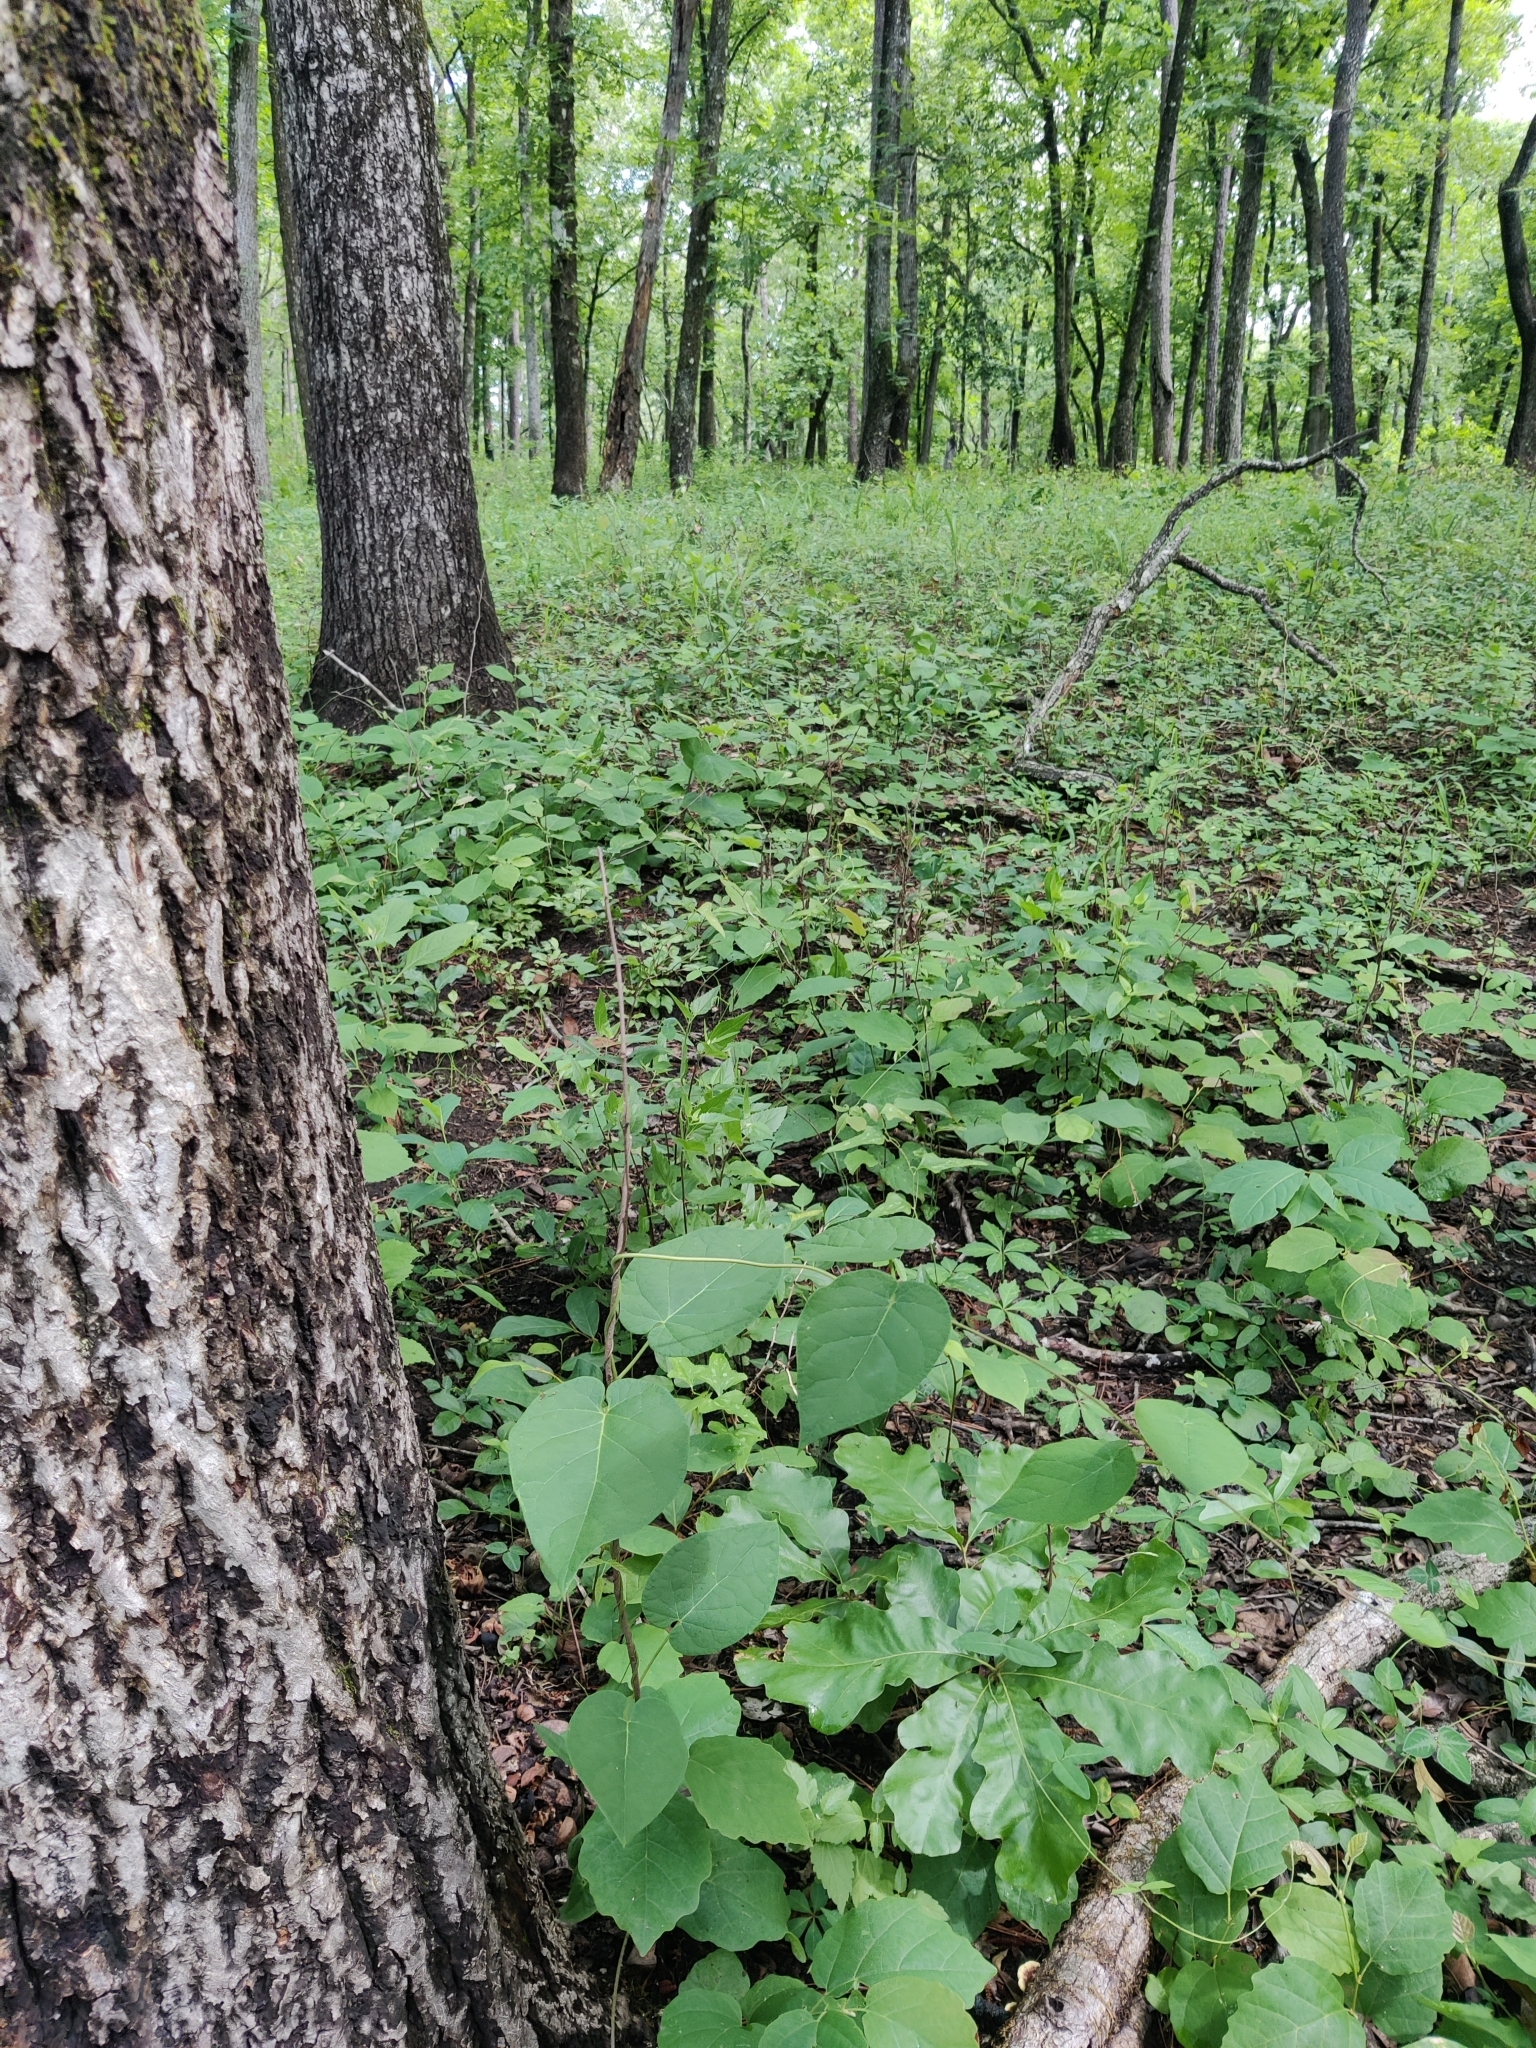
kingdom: Plantae
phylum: Tracheophyta
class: Magnoliopsida
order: Gentianales
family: Apocynaceae
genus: Matelea
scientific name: Matelea floridana
